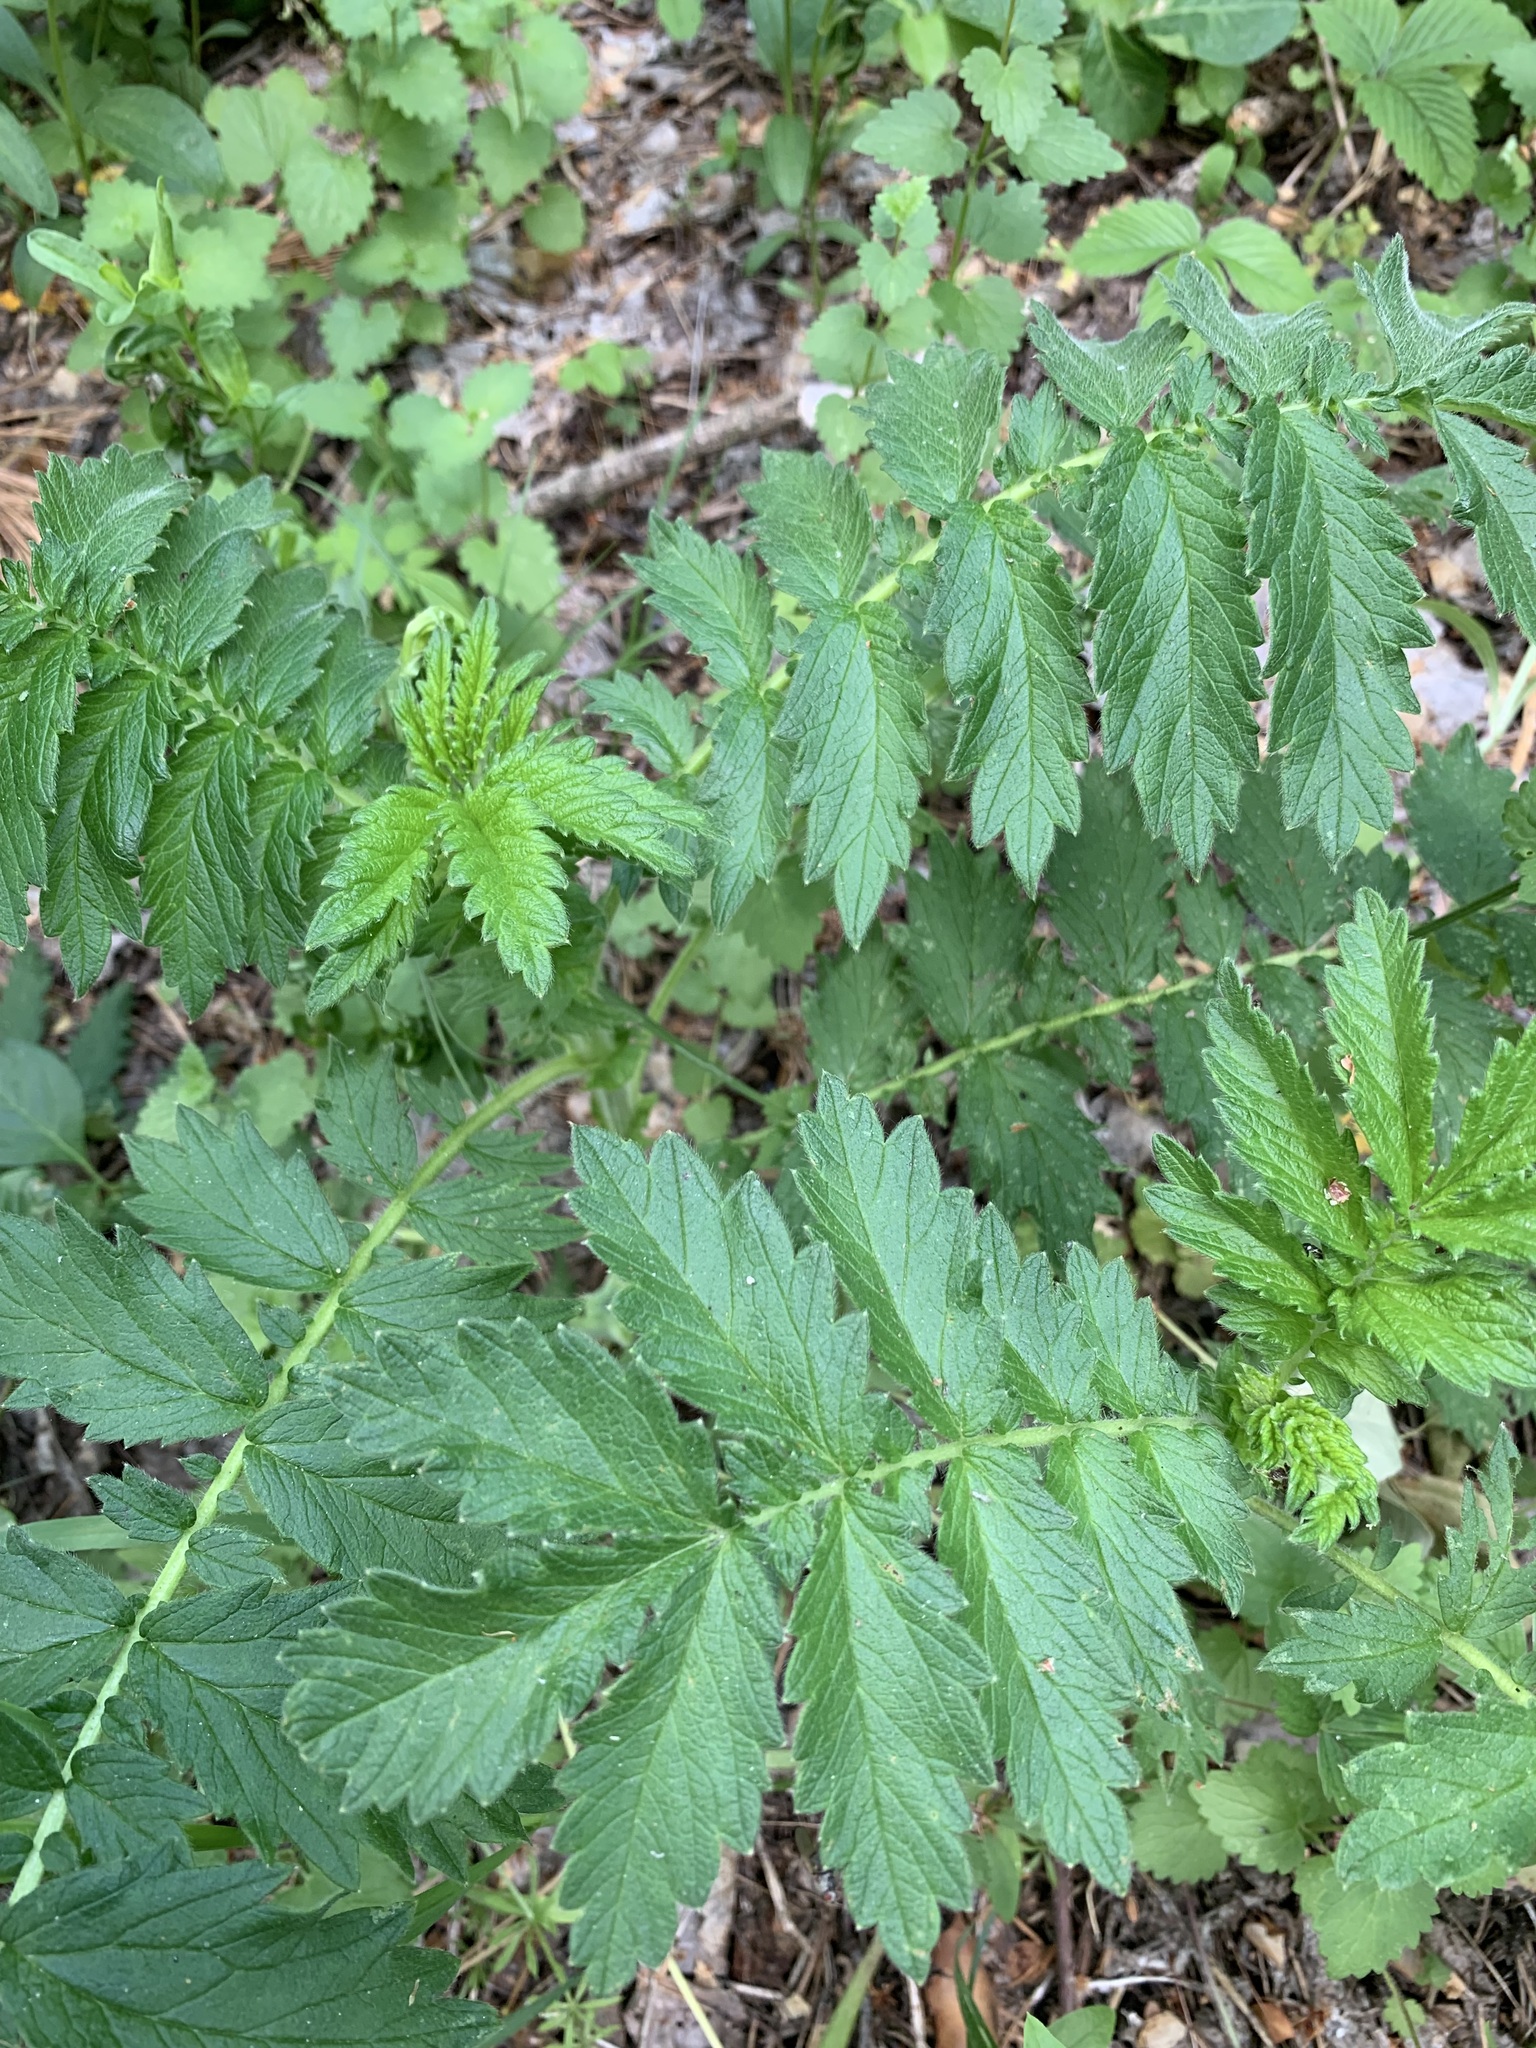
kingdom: Plantae
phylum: Tracheophyta
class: Magnoliopsida
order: Rosales
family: Rosaceae
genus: Agrimonia
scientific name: Agrimonia eupatoria
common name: Agrimony
